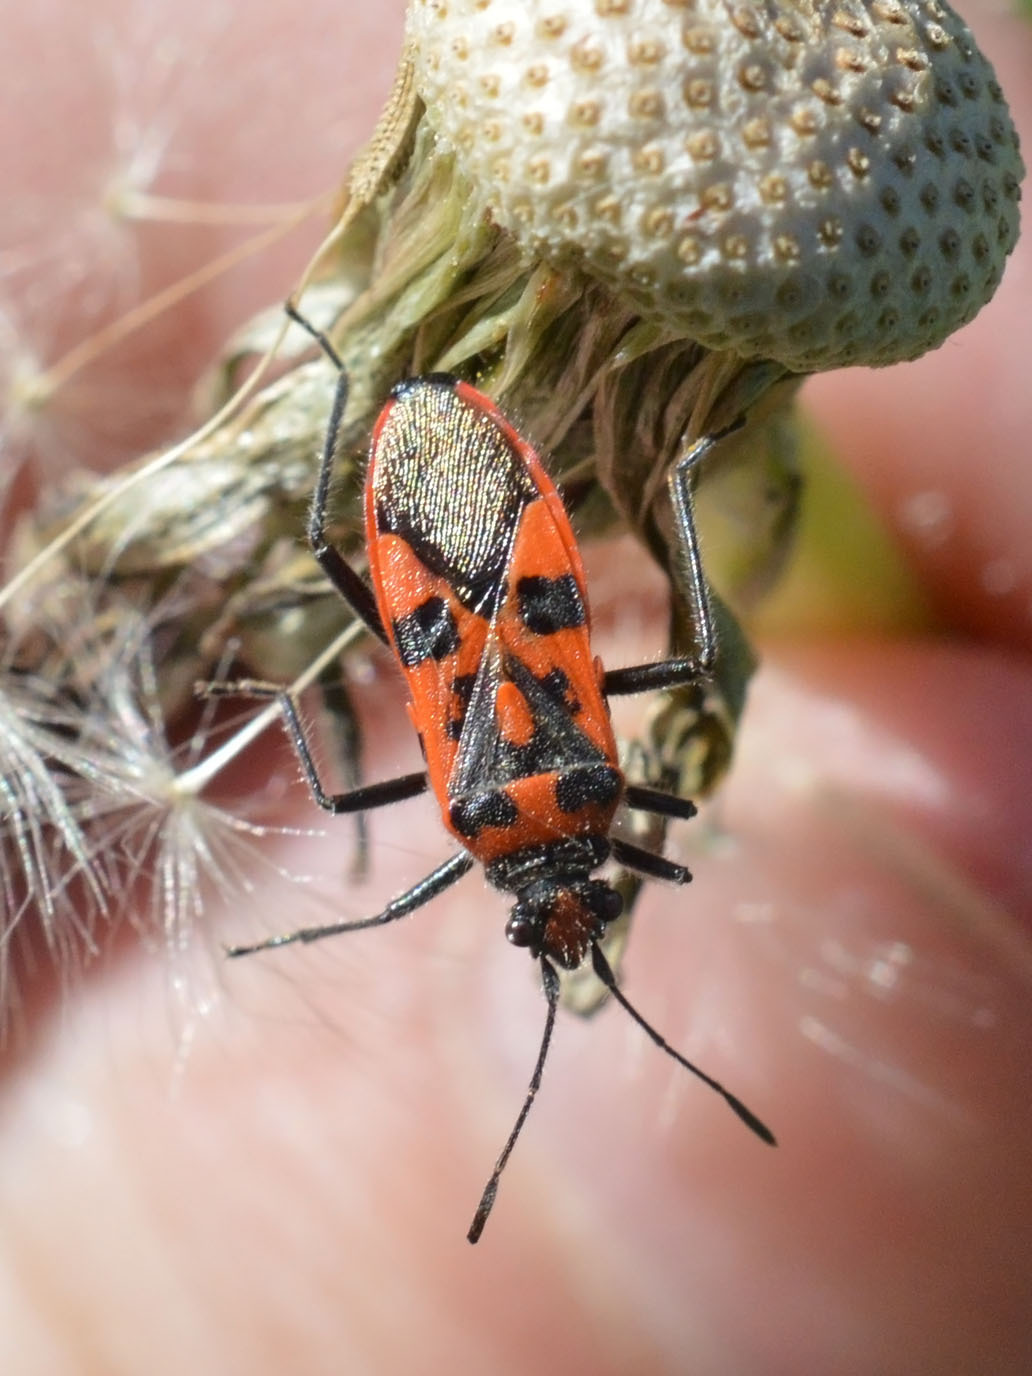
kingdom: Animalia
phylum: Arthropoda
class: Insecta
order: Hemiptera
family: Rhopalidae
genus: Corizus
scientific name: Corizus hyoscyami
